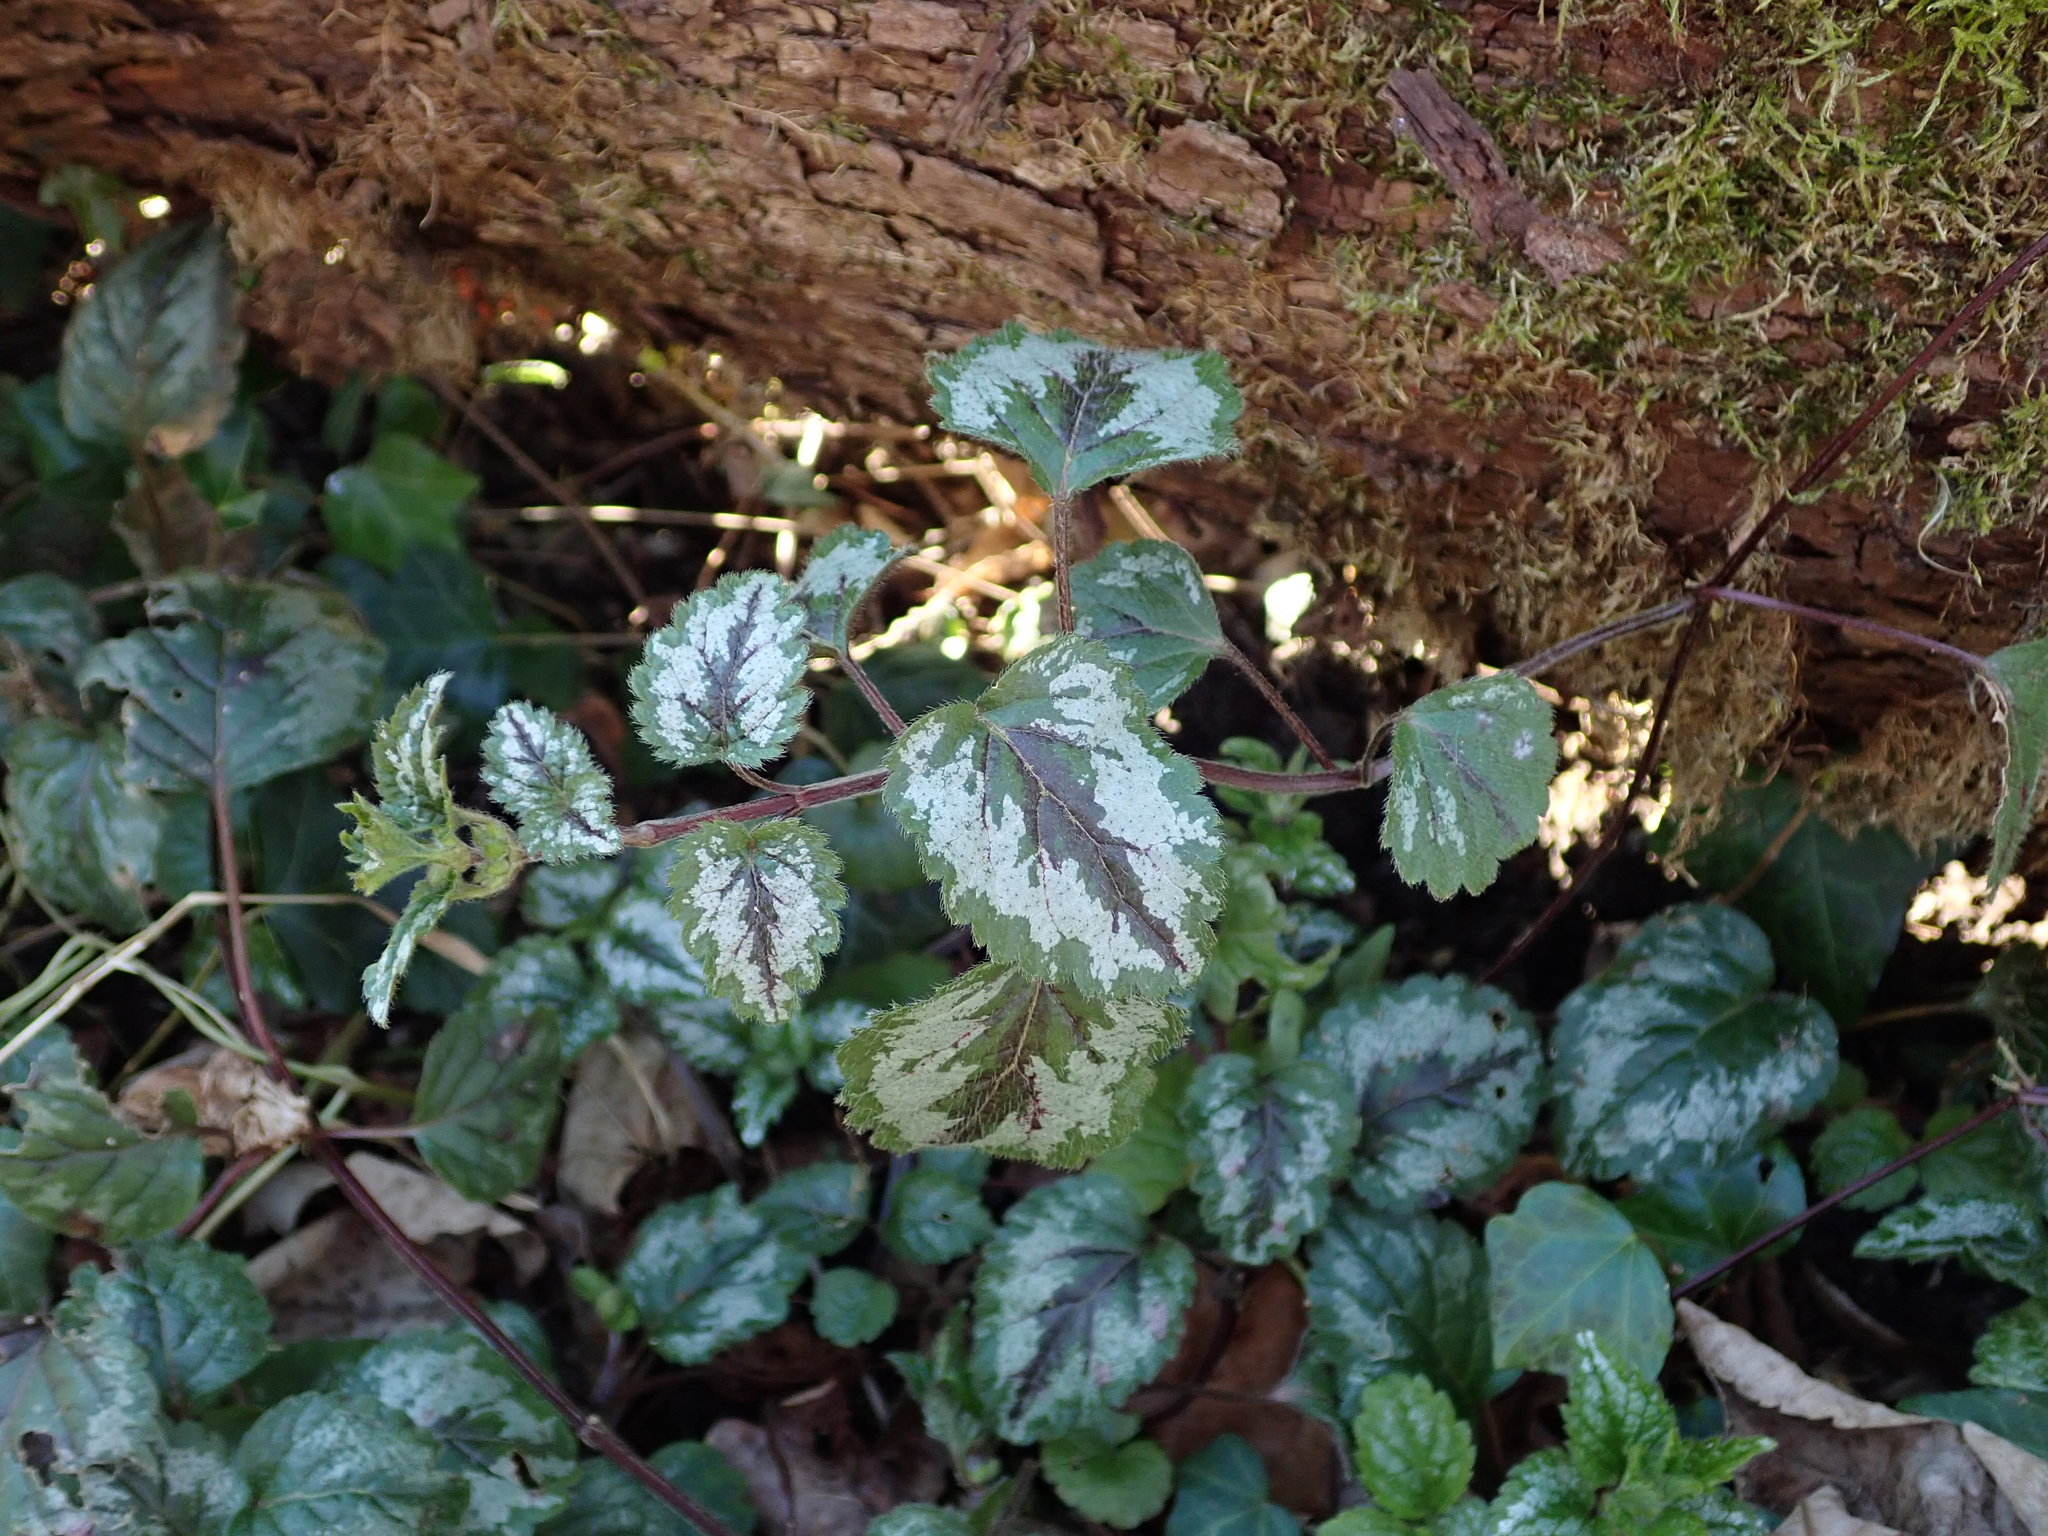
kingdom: Plantae
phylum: Tracheophyta
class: Magnoliopsida
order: Lamiales
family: Lamiaceae
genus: Lamium
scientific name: Lamium galeobdolon
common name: Yellow archangel
